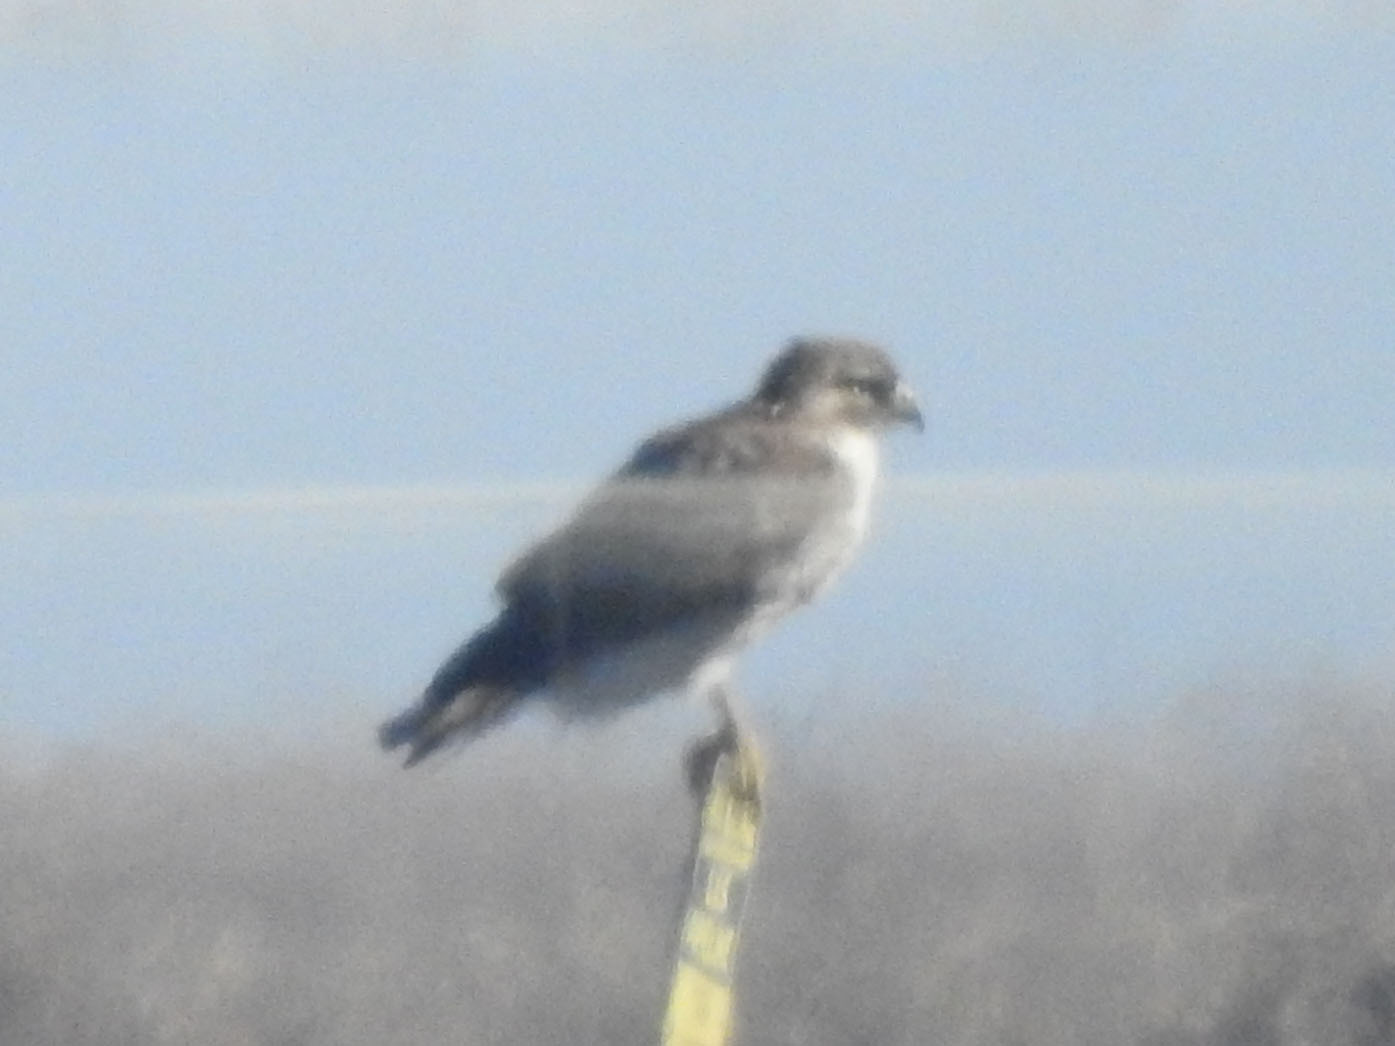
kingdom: Animalia
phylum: Chordata
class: Aves
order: Accipitriformes
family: Accipitridae
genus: Buteo
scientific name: Buteo jamaicensis
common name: Red-tailed hawk
